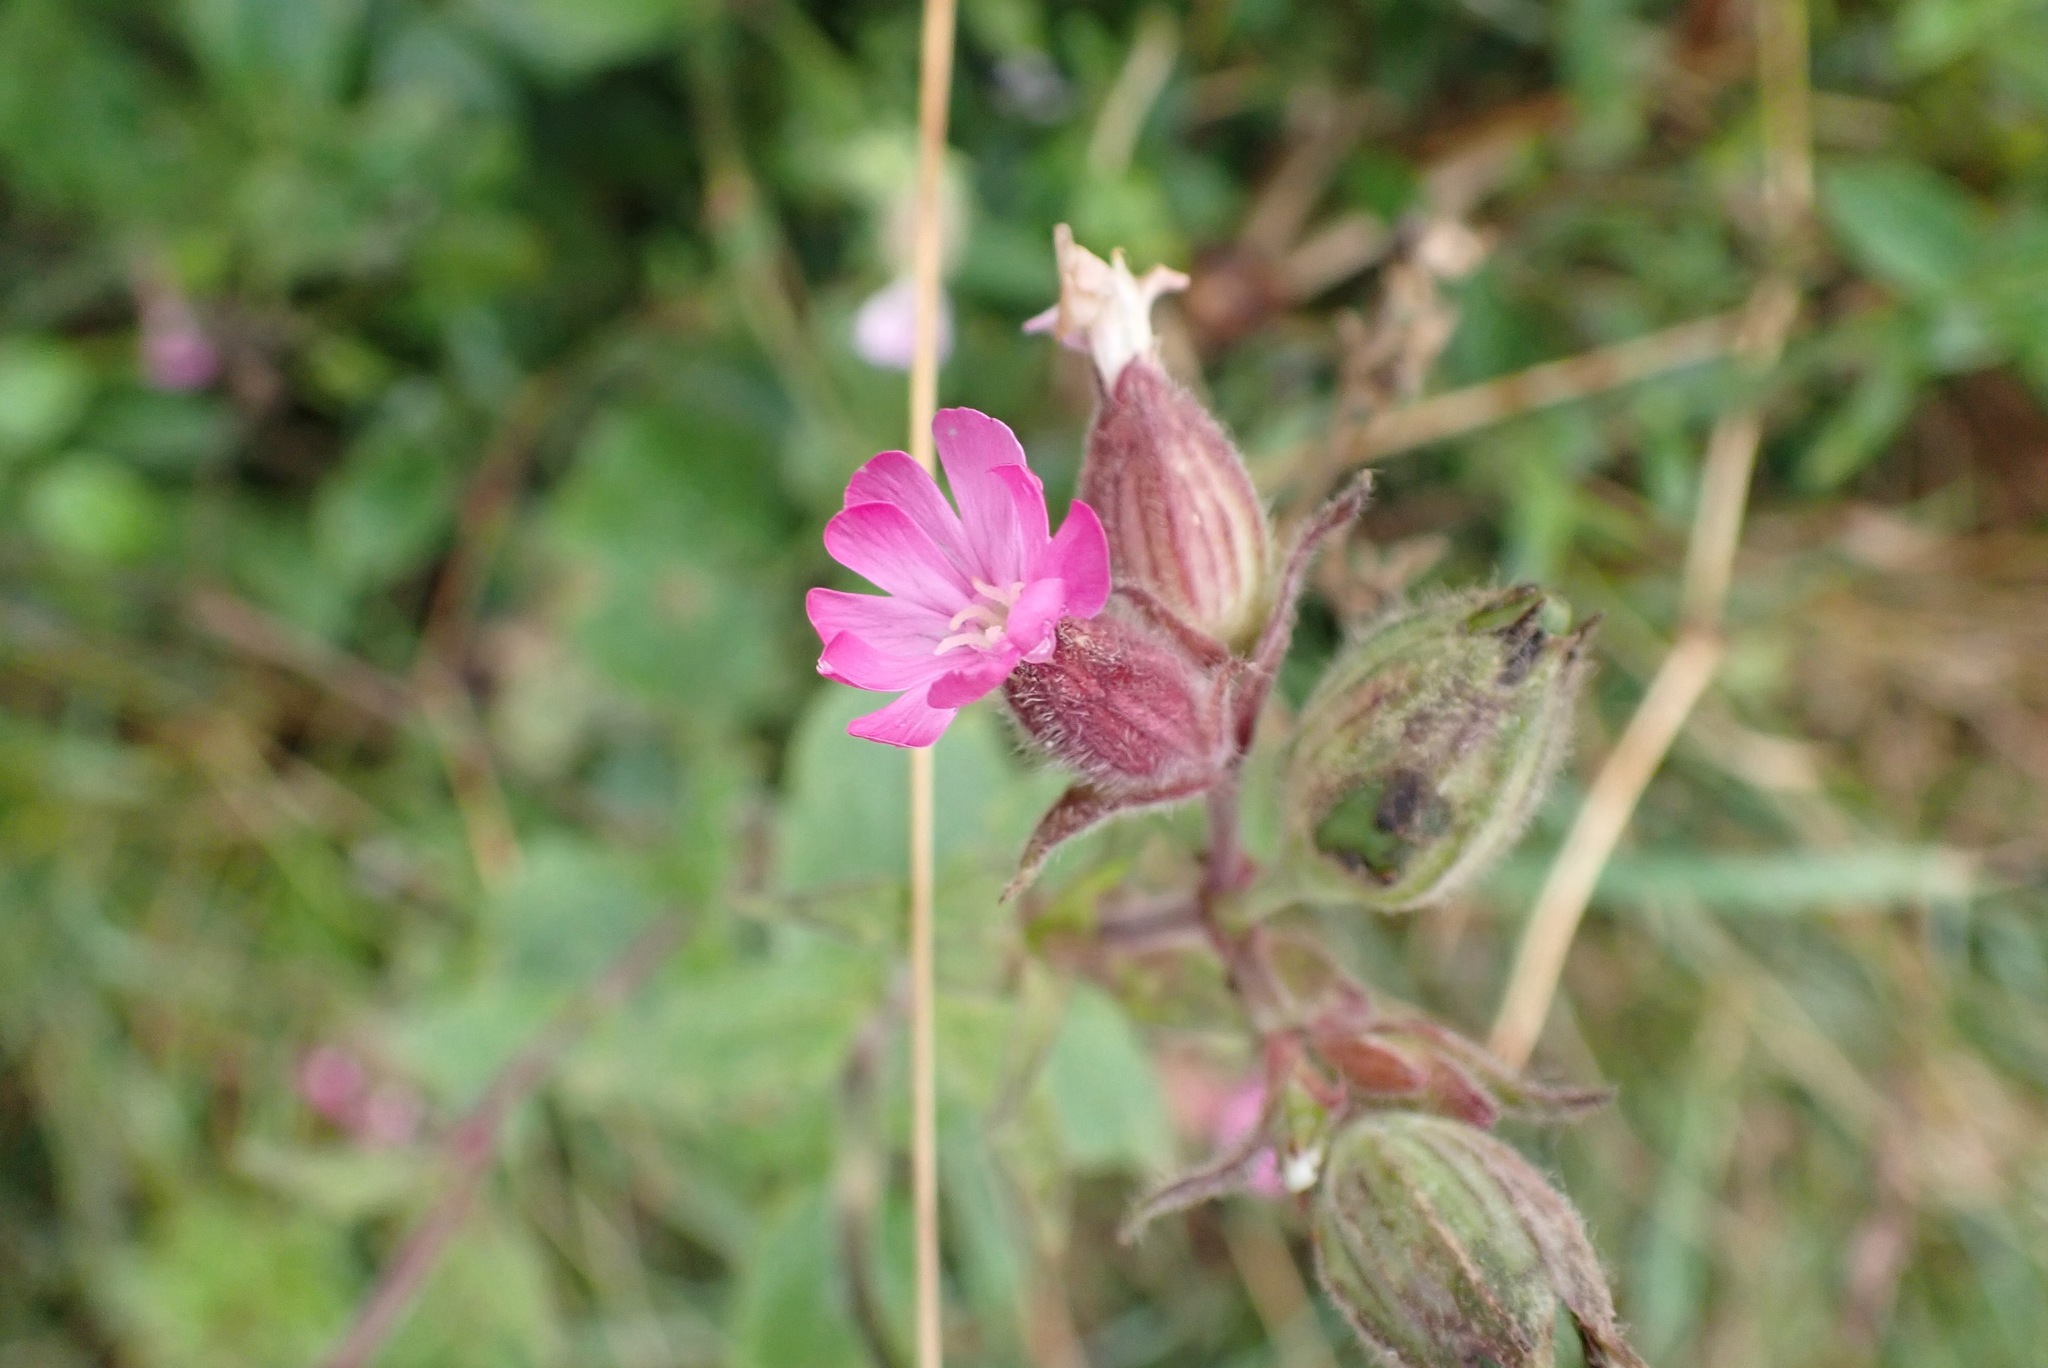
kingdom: Plantae
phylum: Tracheophyta
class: Magnoliopsida
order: Caryophyllales
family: Caryophyllaceae
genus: Silene
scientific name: Silene dioica
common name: Red campion
